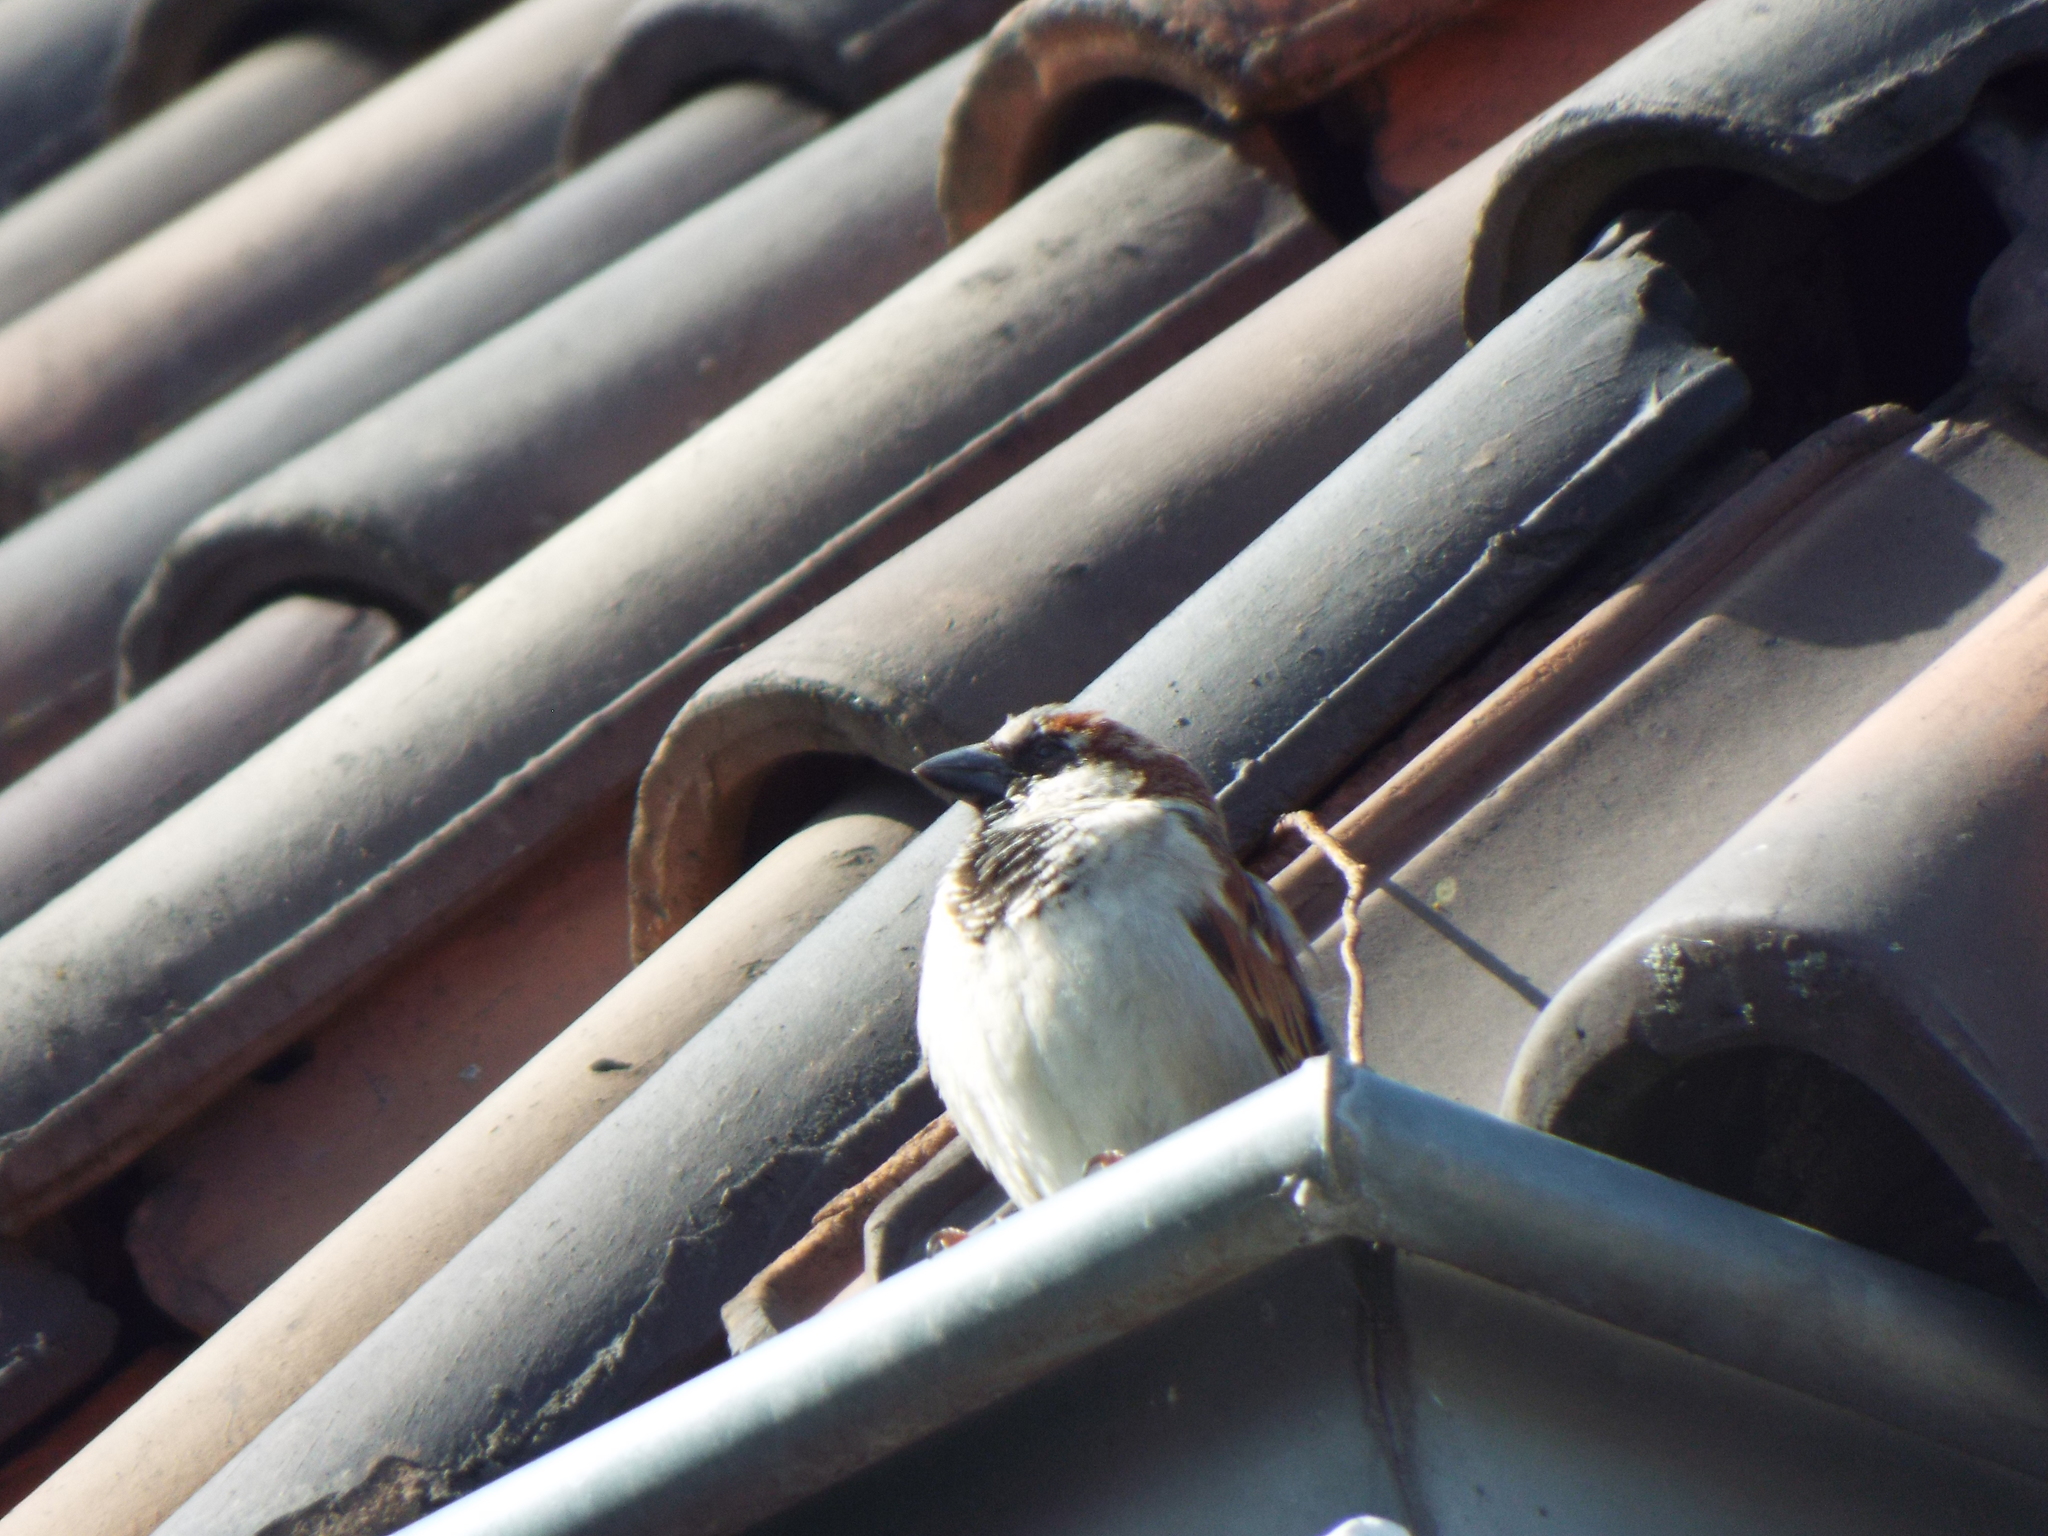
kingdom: Animalia
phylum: Chordata
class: Aves
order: Passeriformes
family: Passeridae
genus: Passer
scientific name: Passer domesticus
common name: House sparrow
